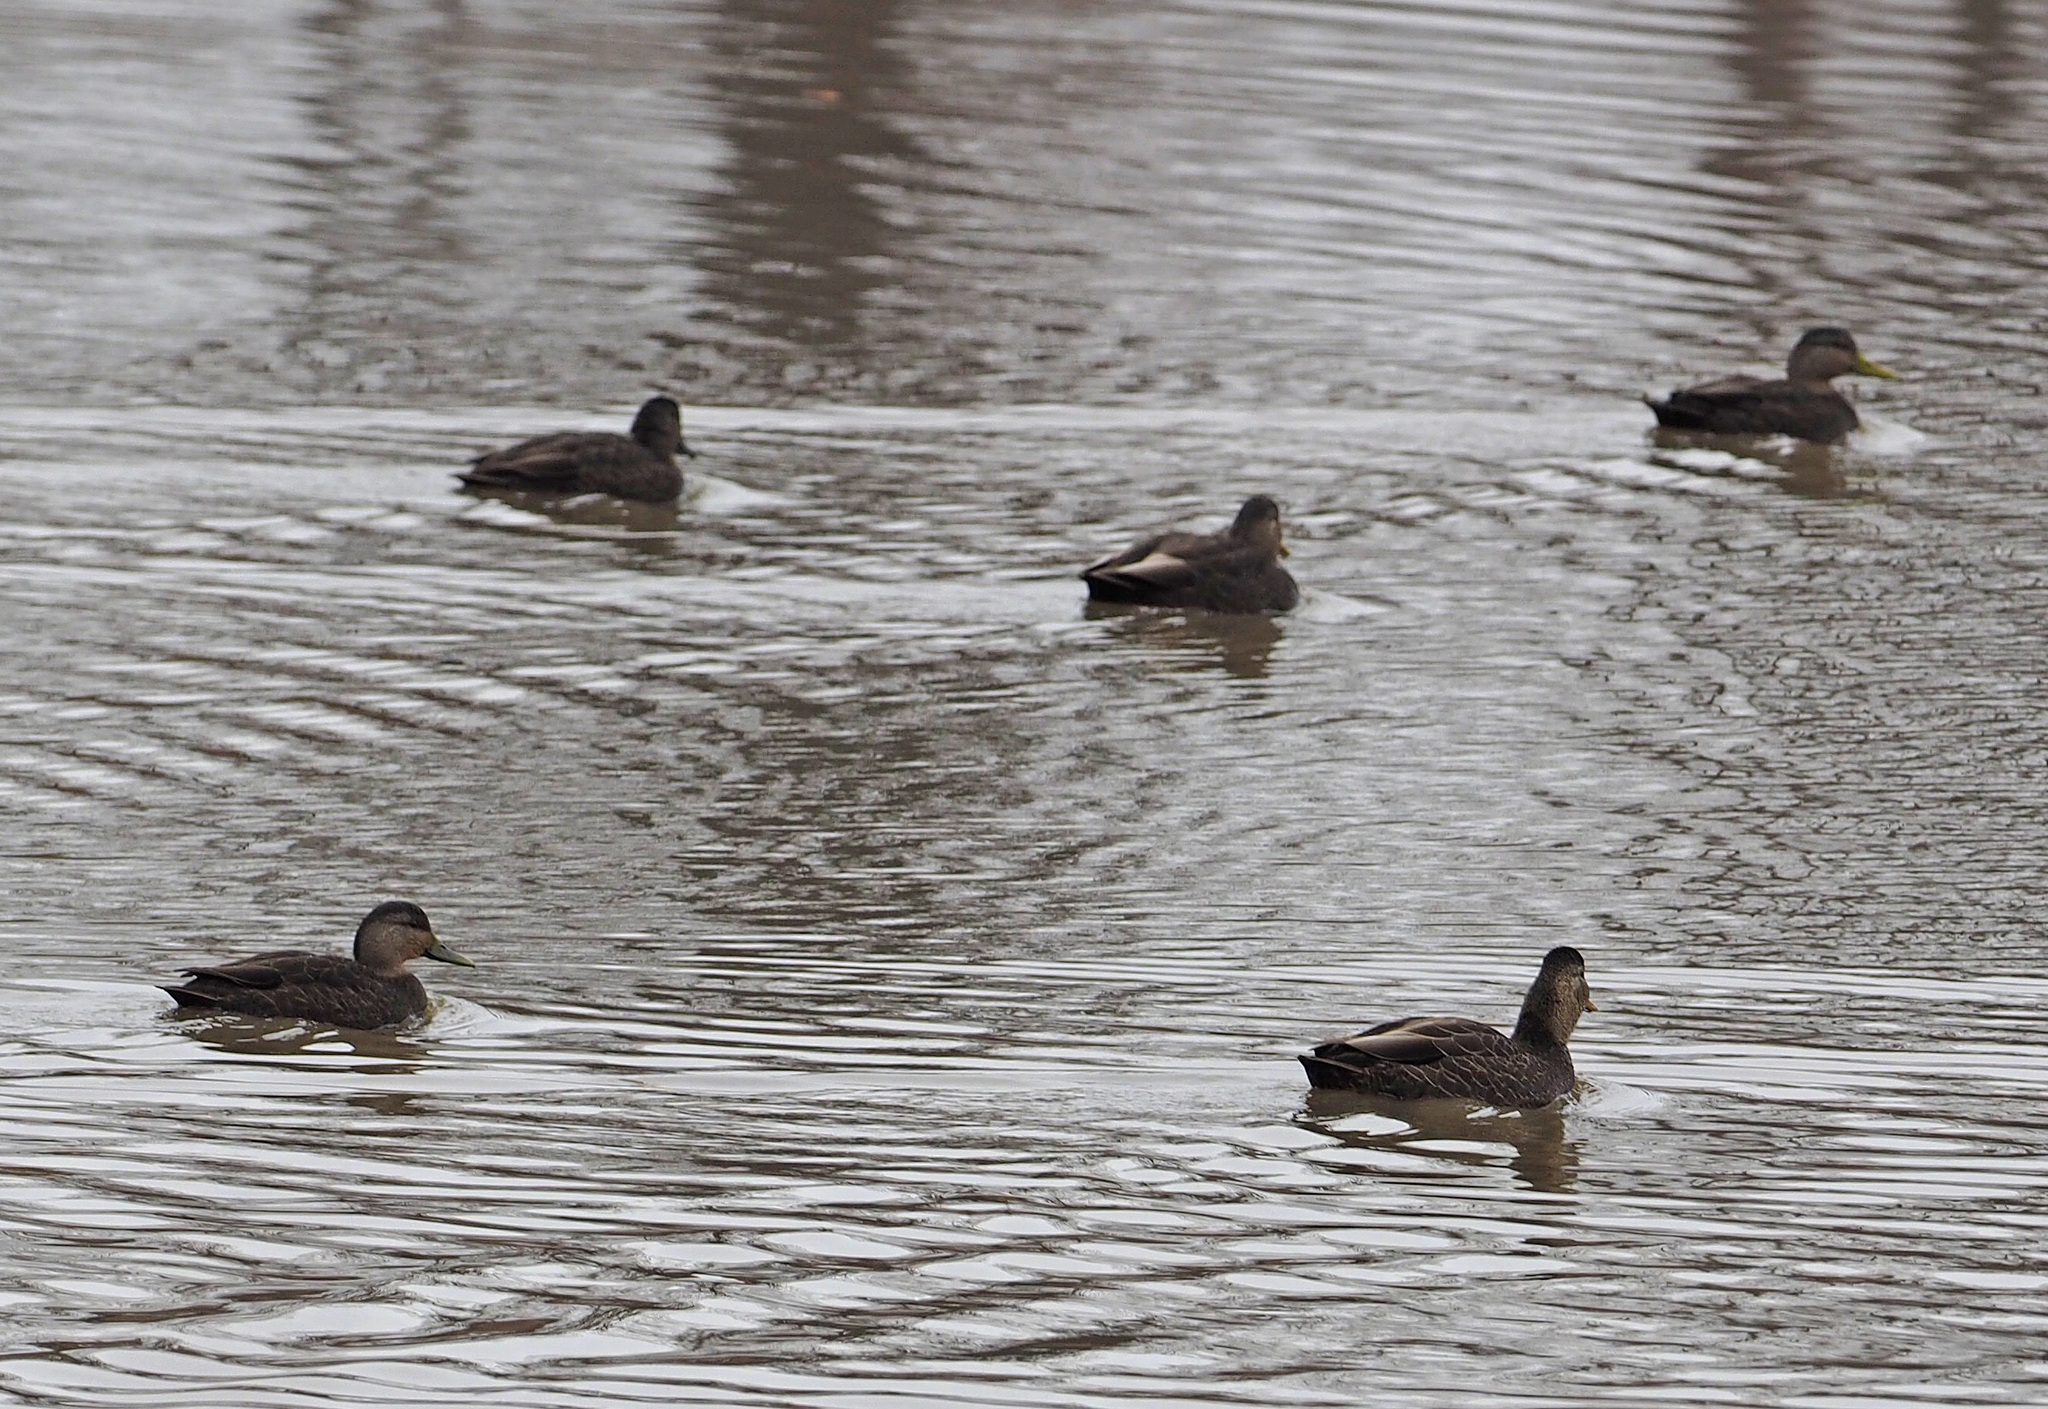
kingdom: Animalia
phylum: Chordata
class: Aves
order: Anseriformes
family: Anatidae
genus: Anas
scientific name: Anas rubripes
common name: American black duck
